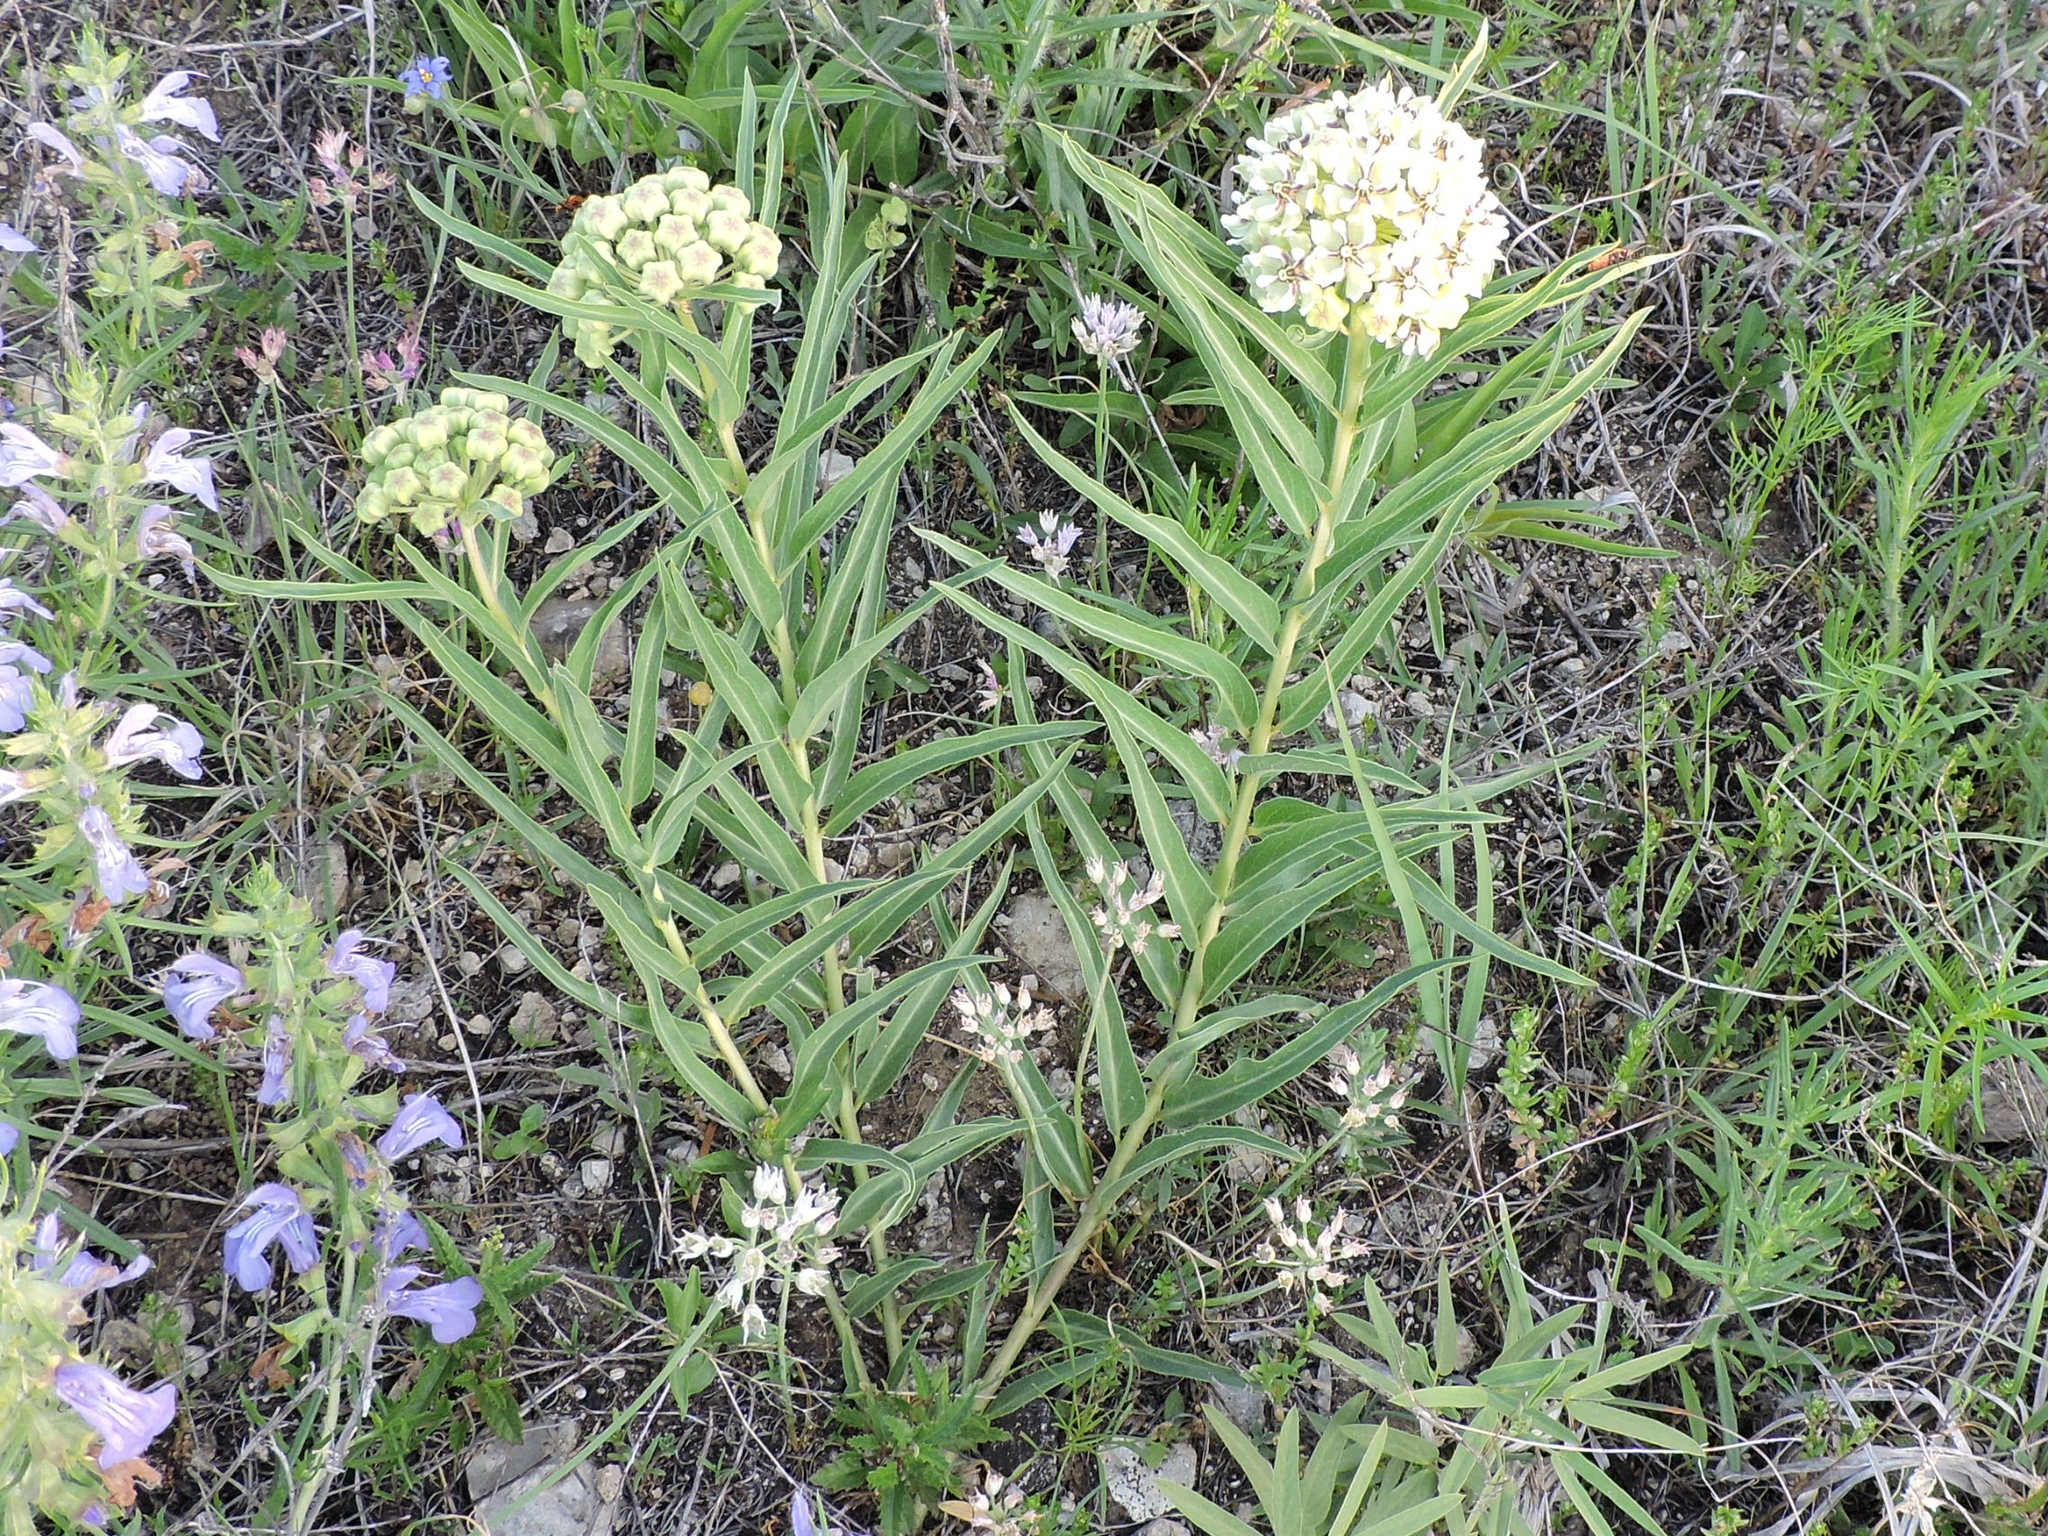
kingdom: Plantae
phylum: Tracheophyta
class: Magnoliopsida
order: Gentianales
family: Apocynaceae
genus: Asclepias
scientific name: Asclepias asperula
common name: Antelope horns
